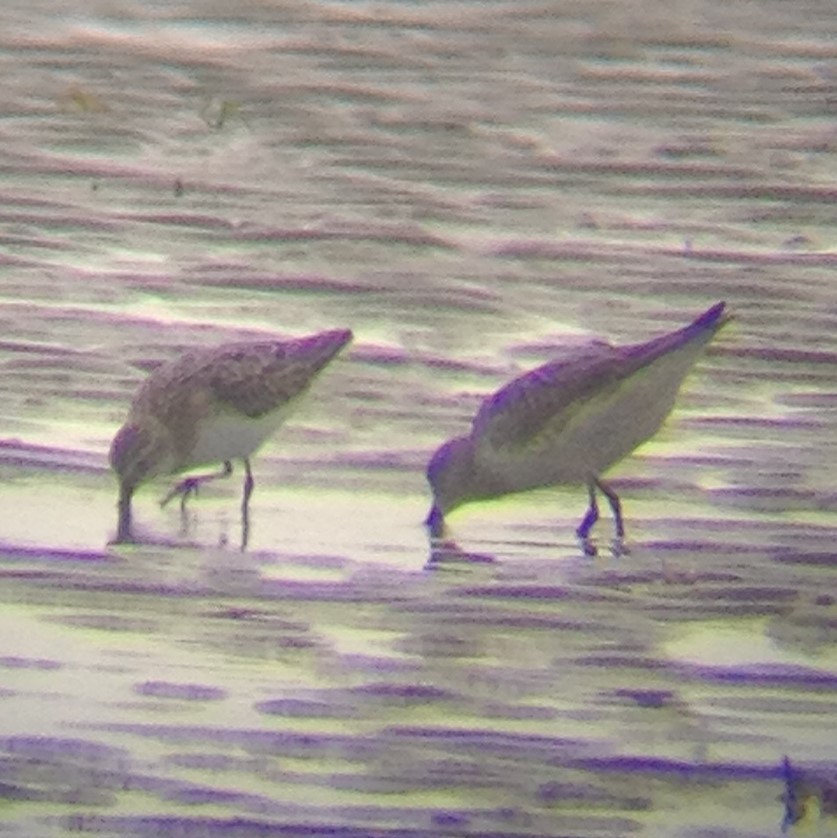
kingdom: Animalia
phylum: Chordata
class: Aves
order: Charadriiformes
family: Scolopacidae
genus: Calidris
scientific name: Calidris fuscicollis
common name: White-rumped sandpiper
